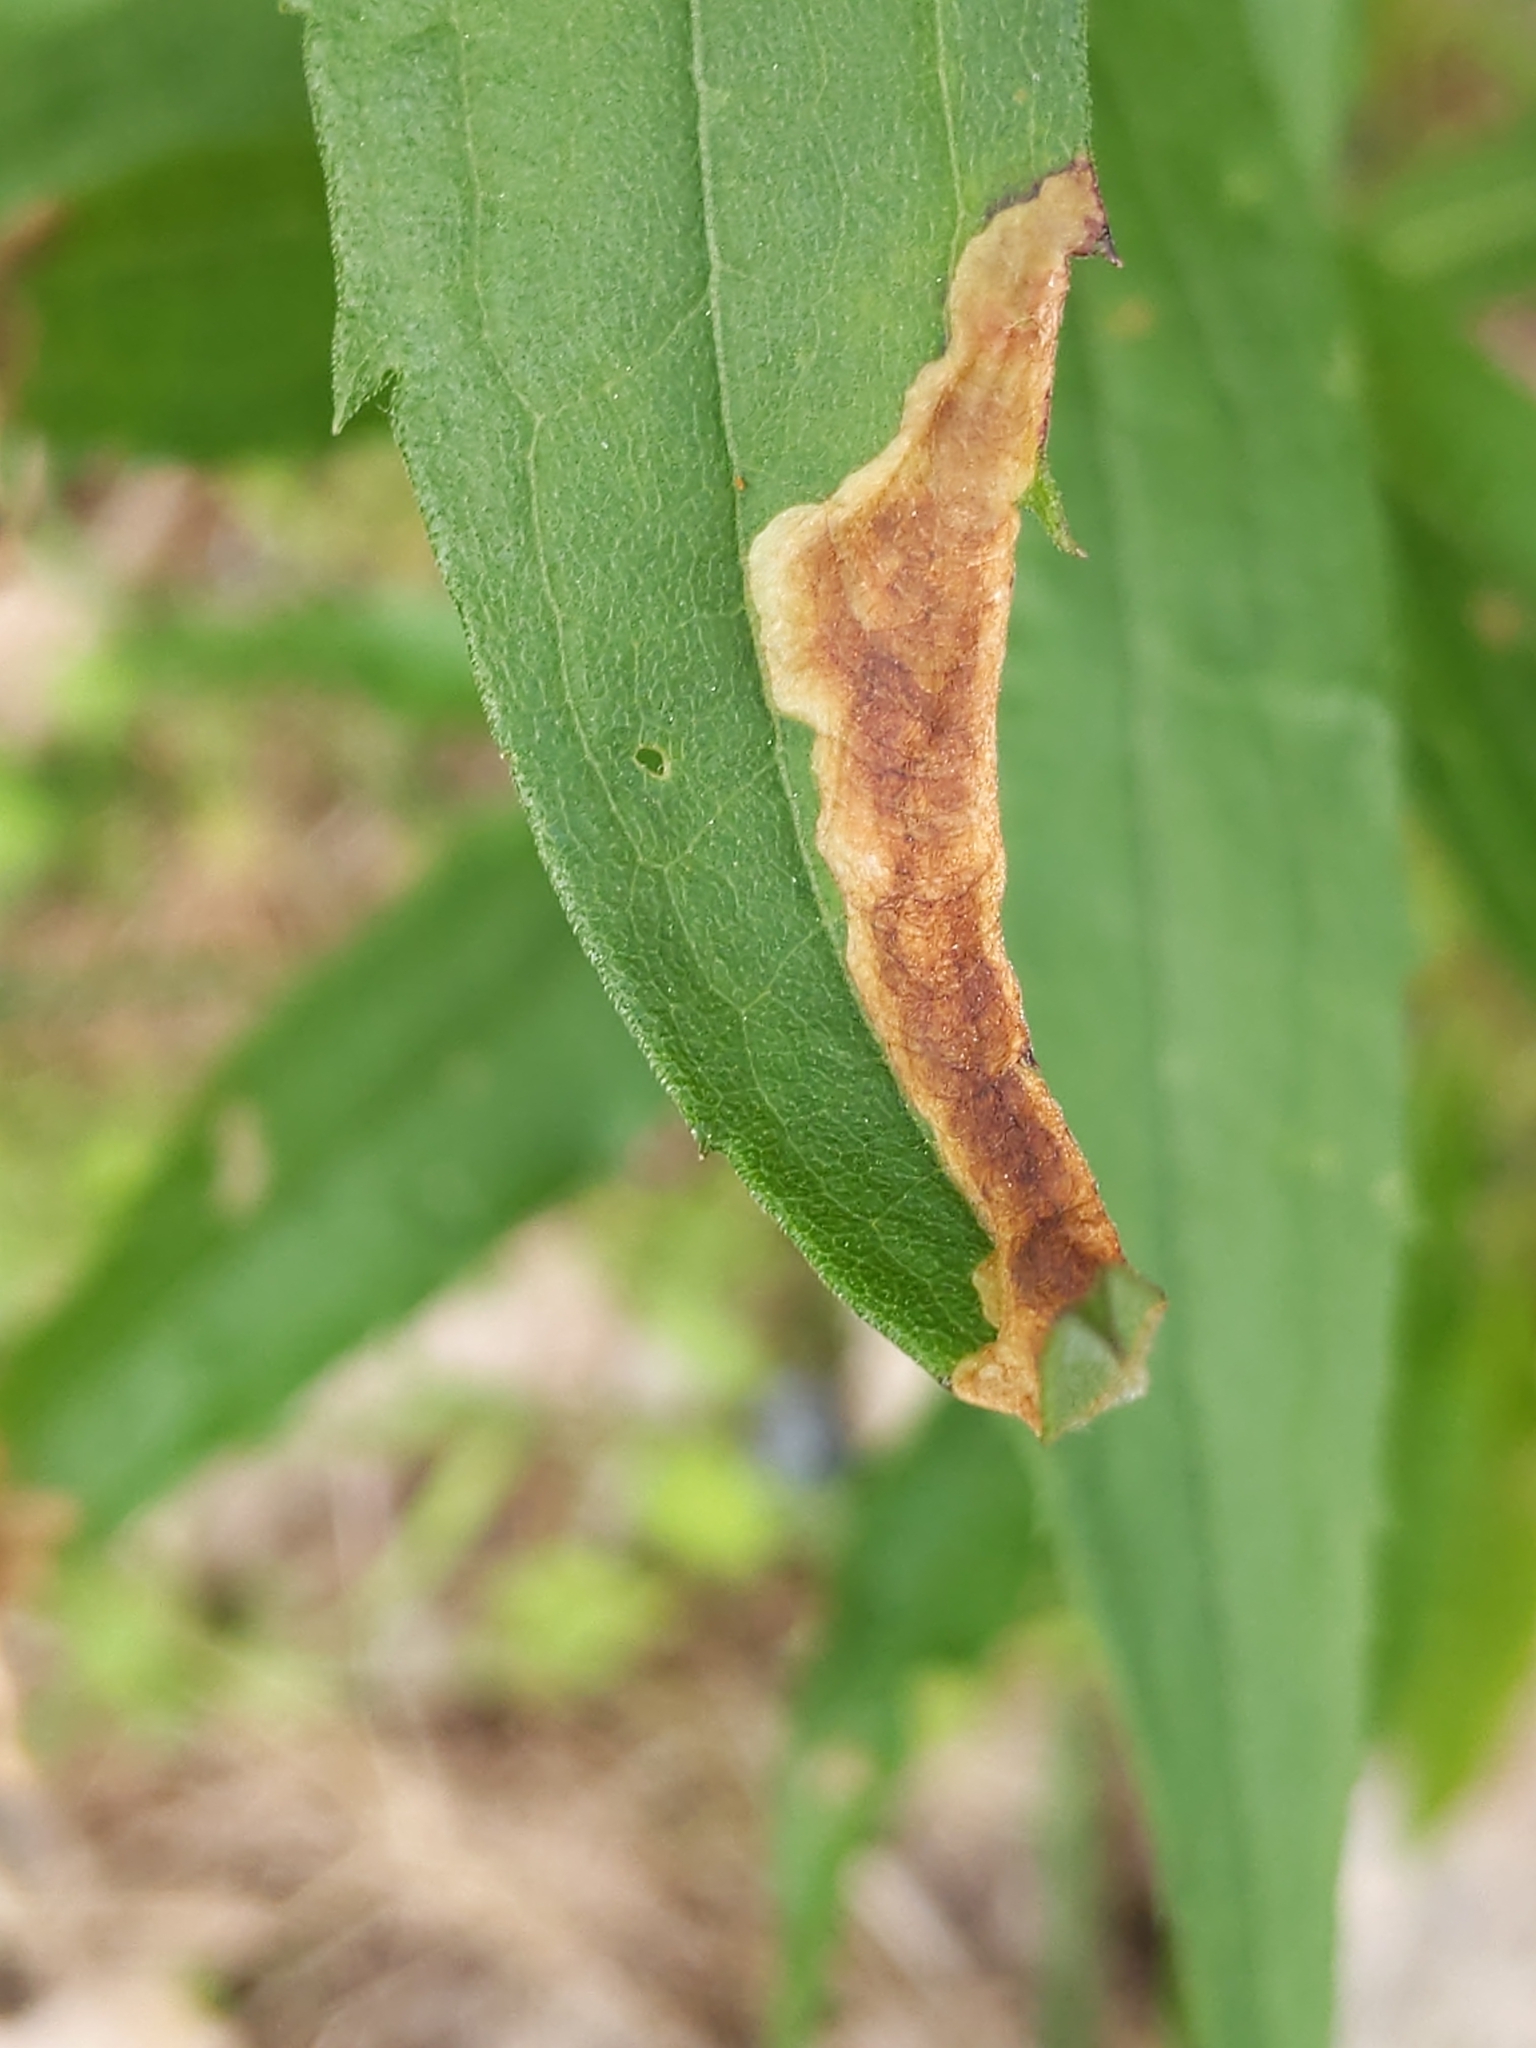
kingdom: Animalia
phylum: Arthropoda
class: Insecta
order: Diptera
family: Agromyzidae
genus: Nemorimyza
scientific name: Nemorimyza posticata
